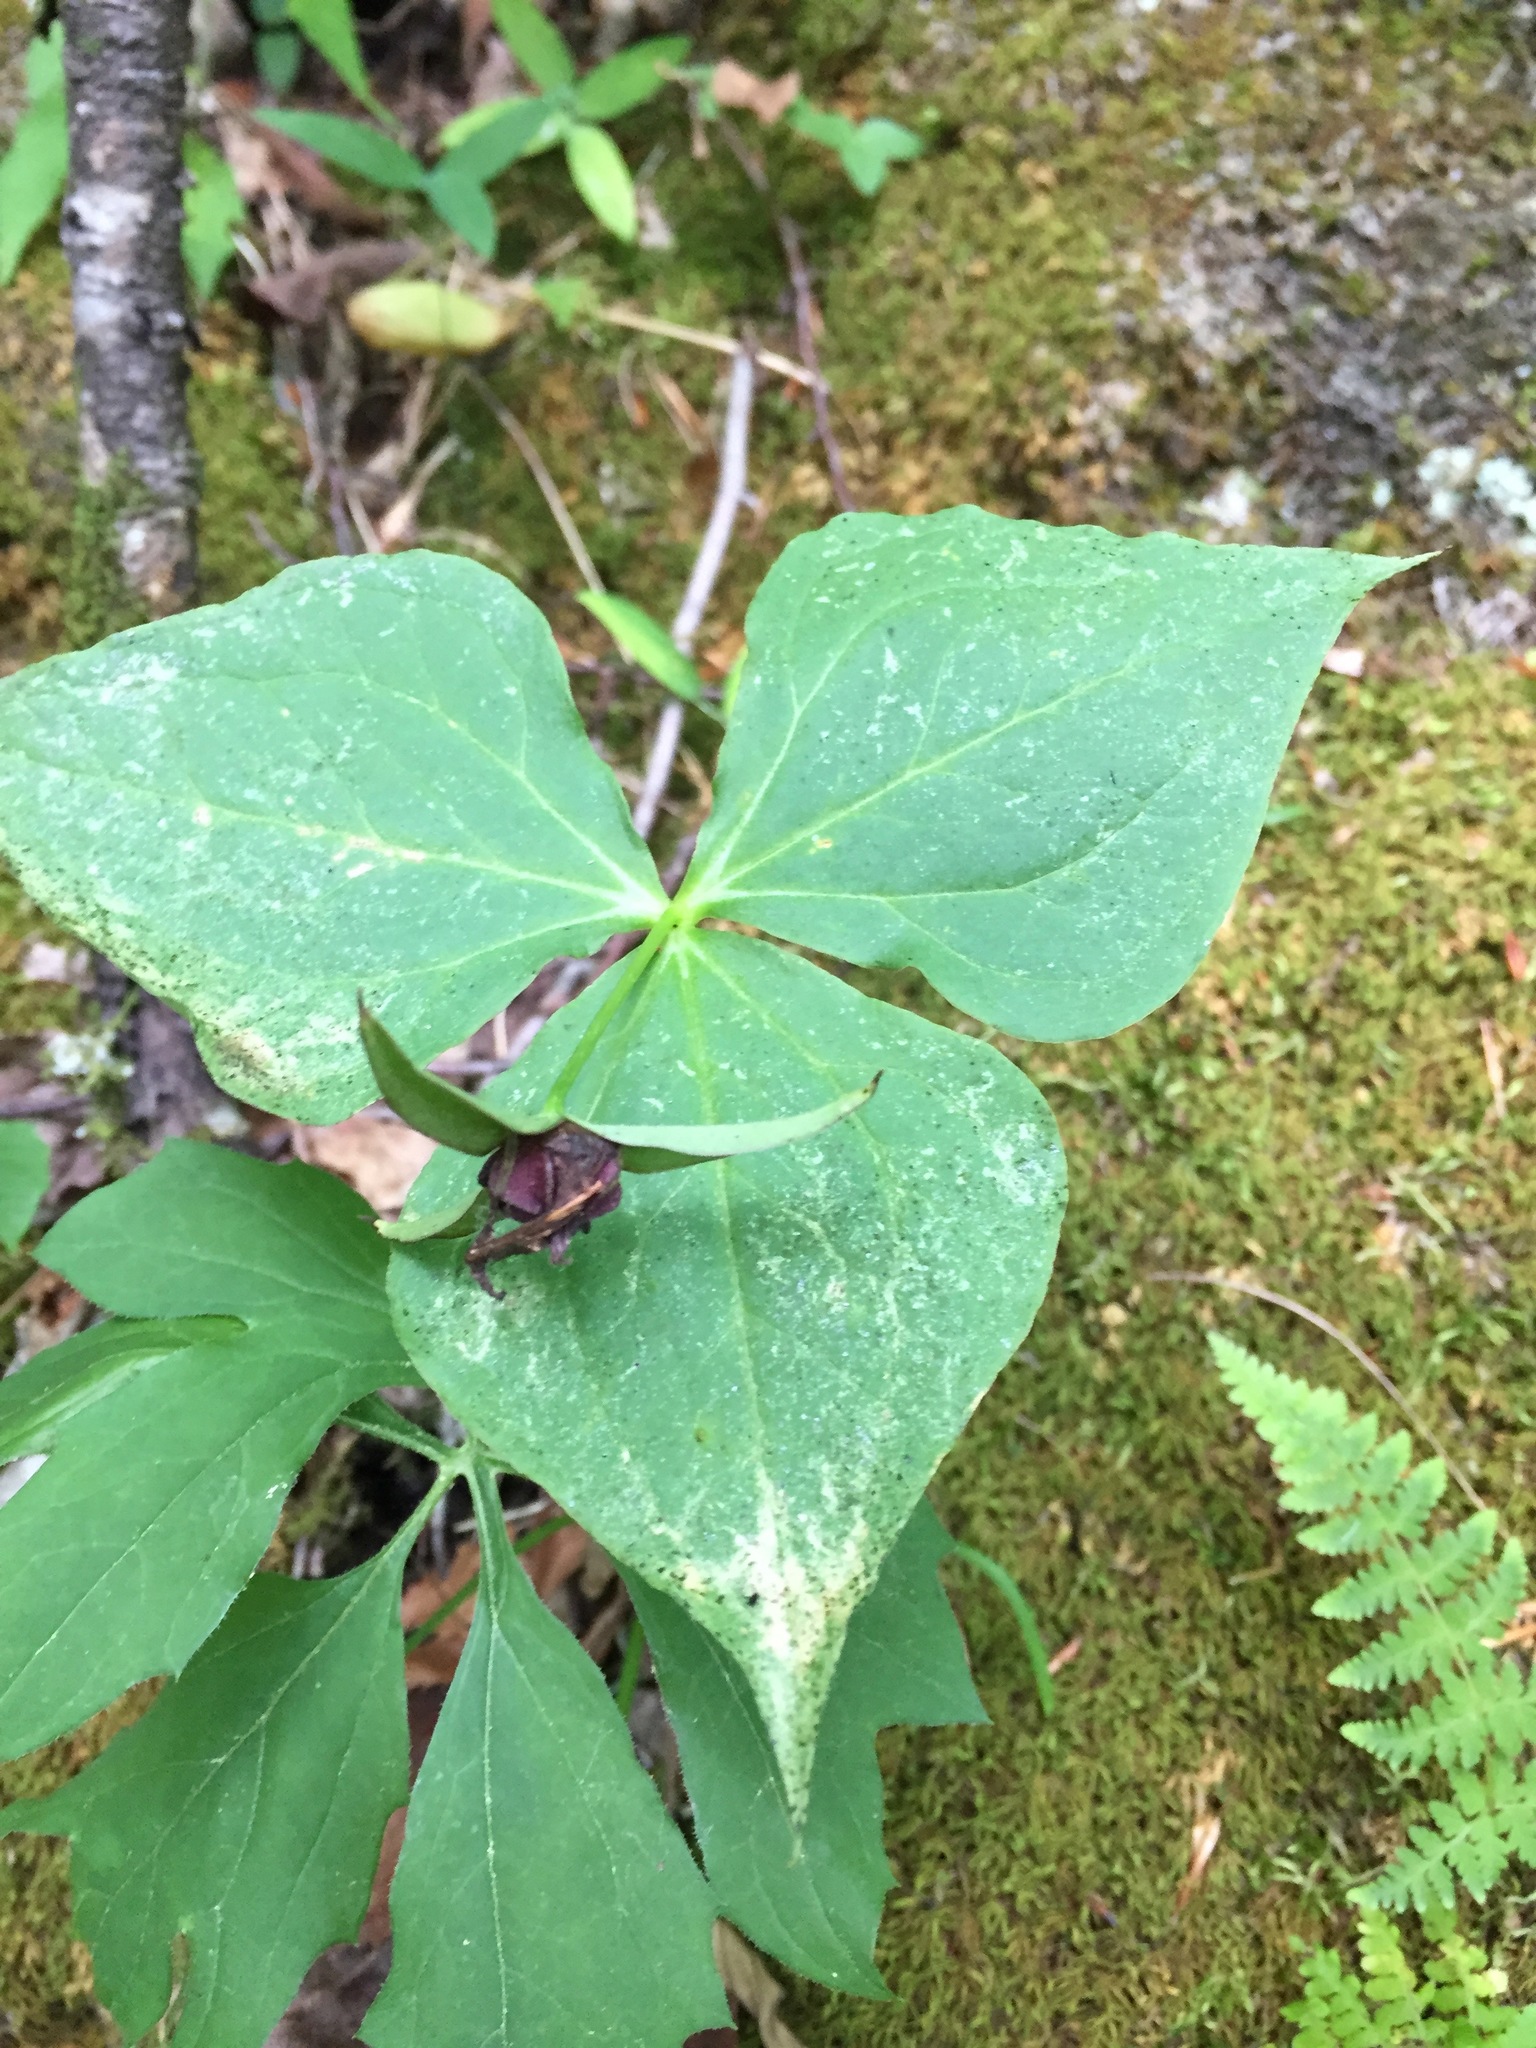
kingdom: Plantae
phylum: Tracheophyta
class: Liliopsida
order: Liliales
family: Melanthiaceae
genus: Trillium
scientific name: Trillium erectum
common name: Purple trillium
